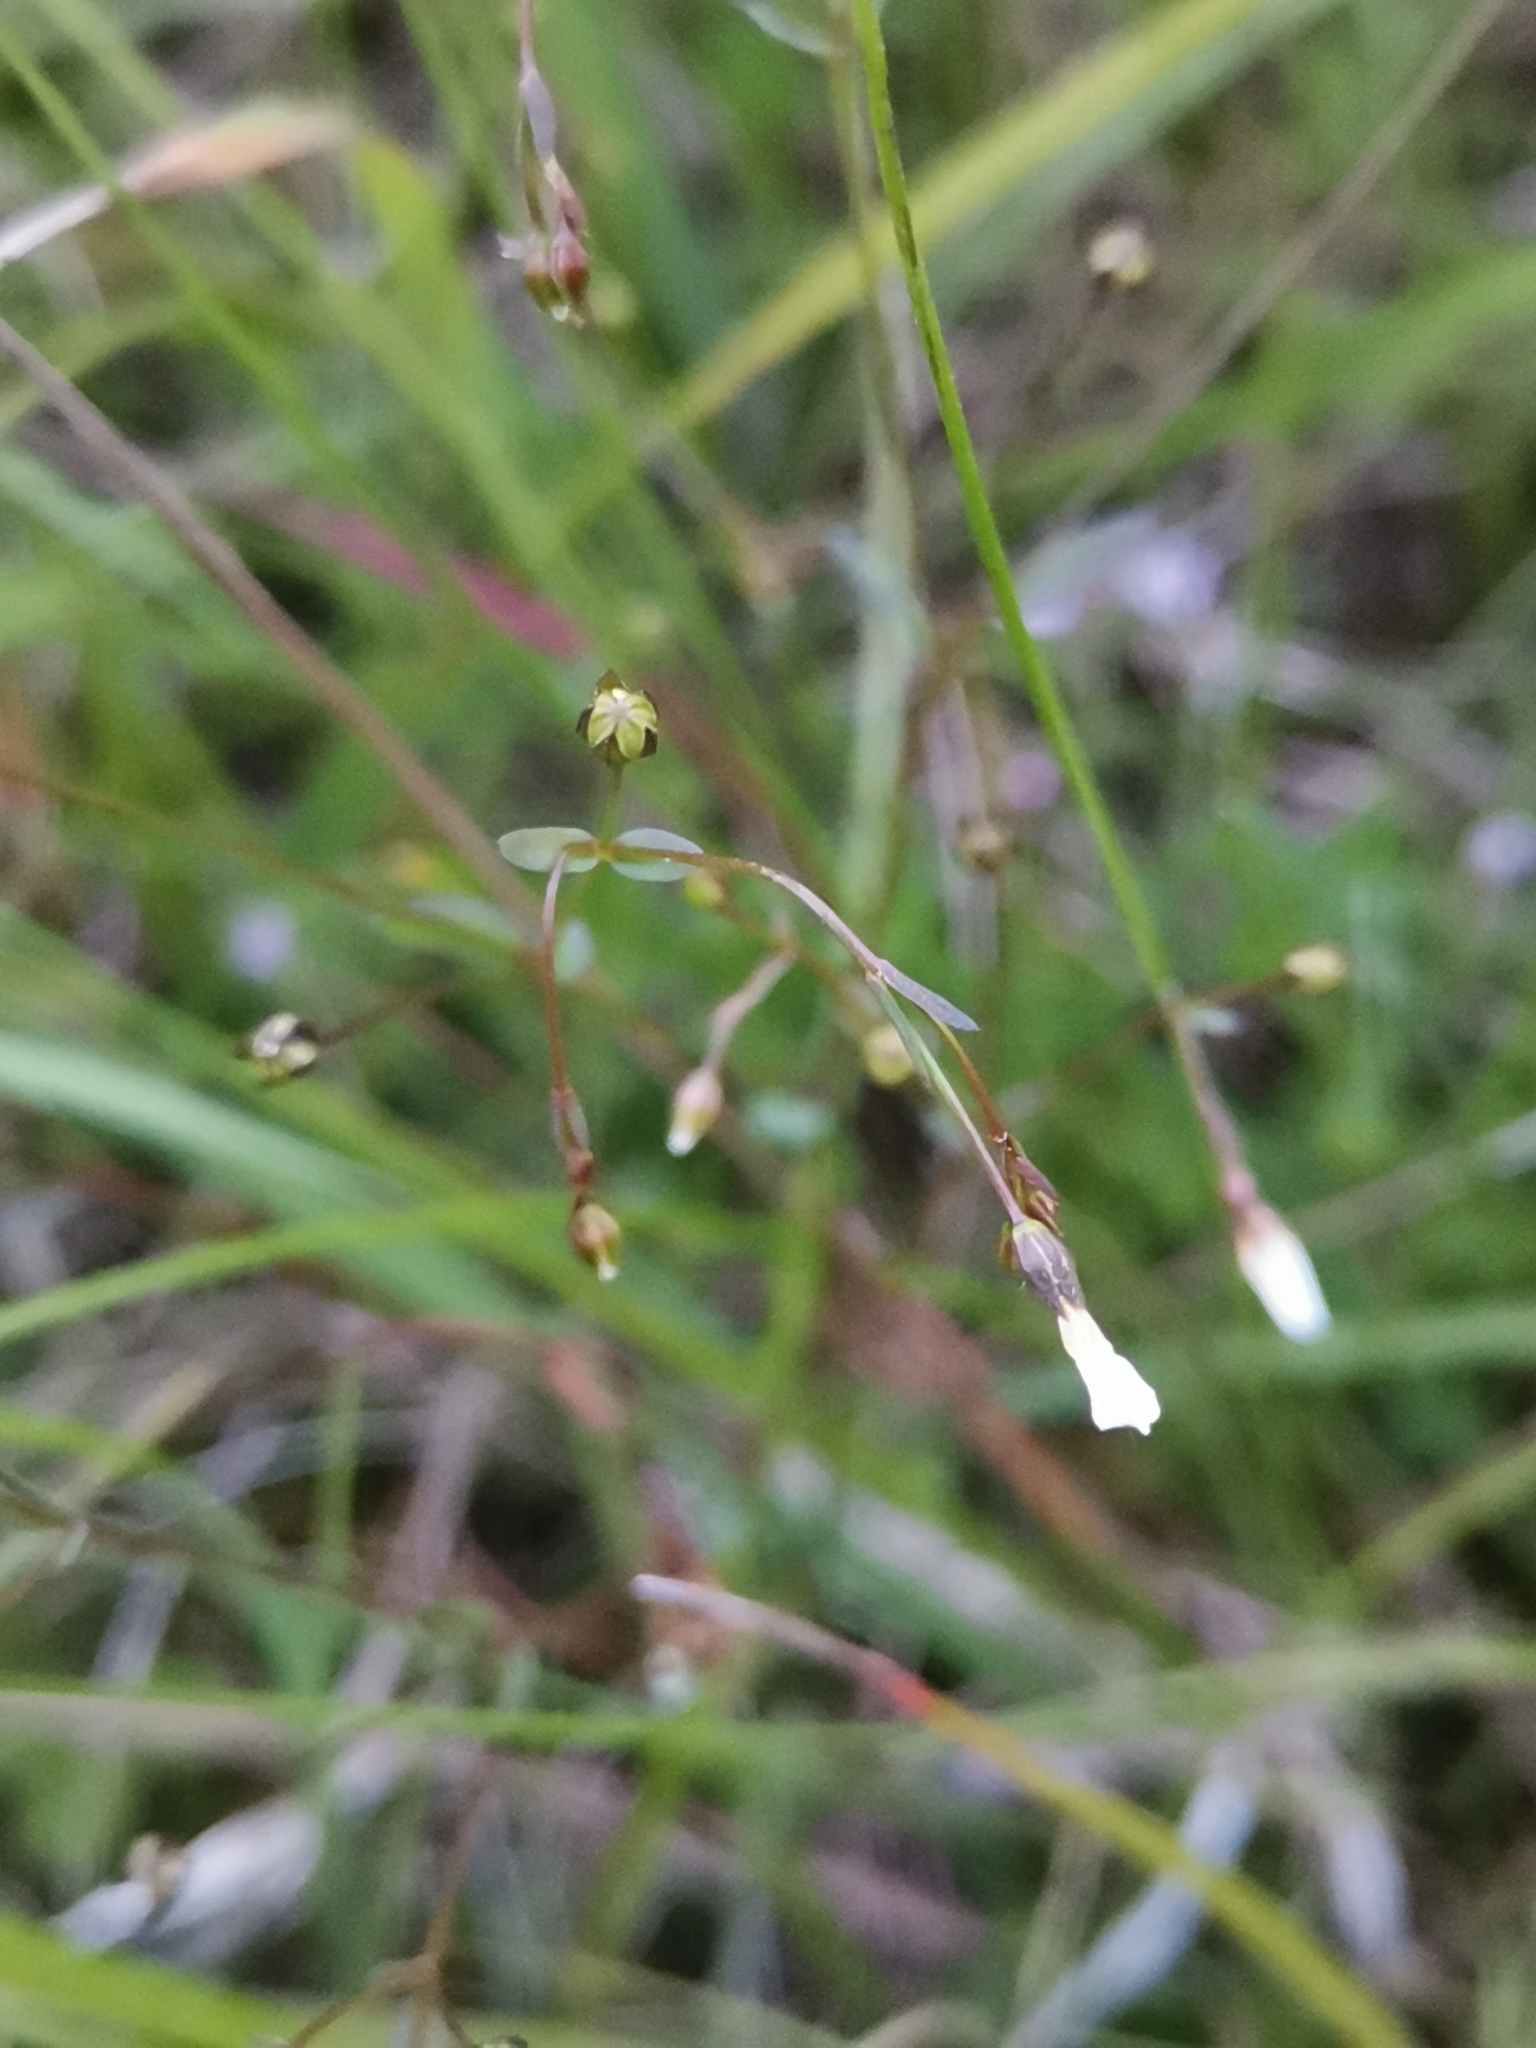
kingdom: Plantae
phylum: Tracheophyta
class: Magnoliopsida
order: Malpighiales
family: Linaceae
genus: Linum
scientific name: Linum catharticum
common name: Fairy flax
